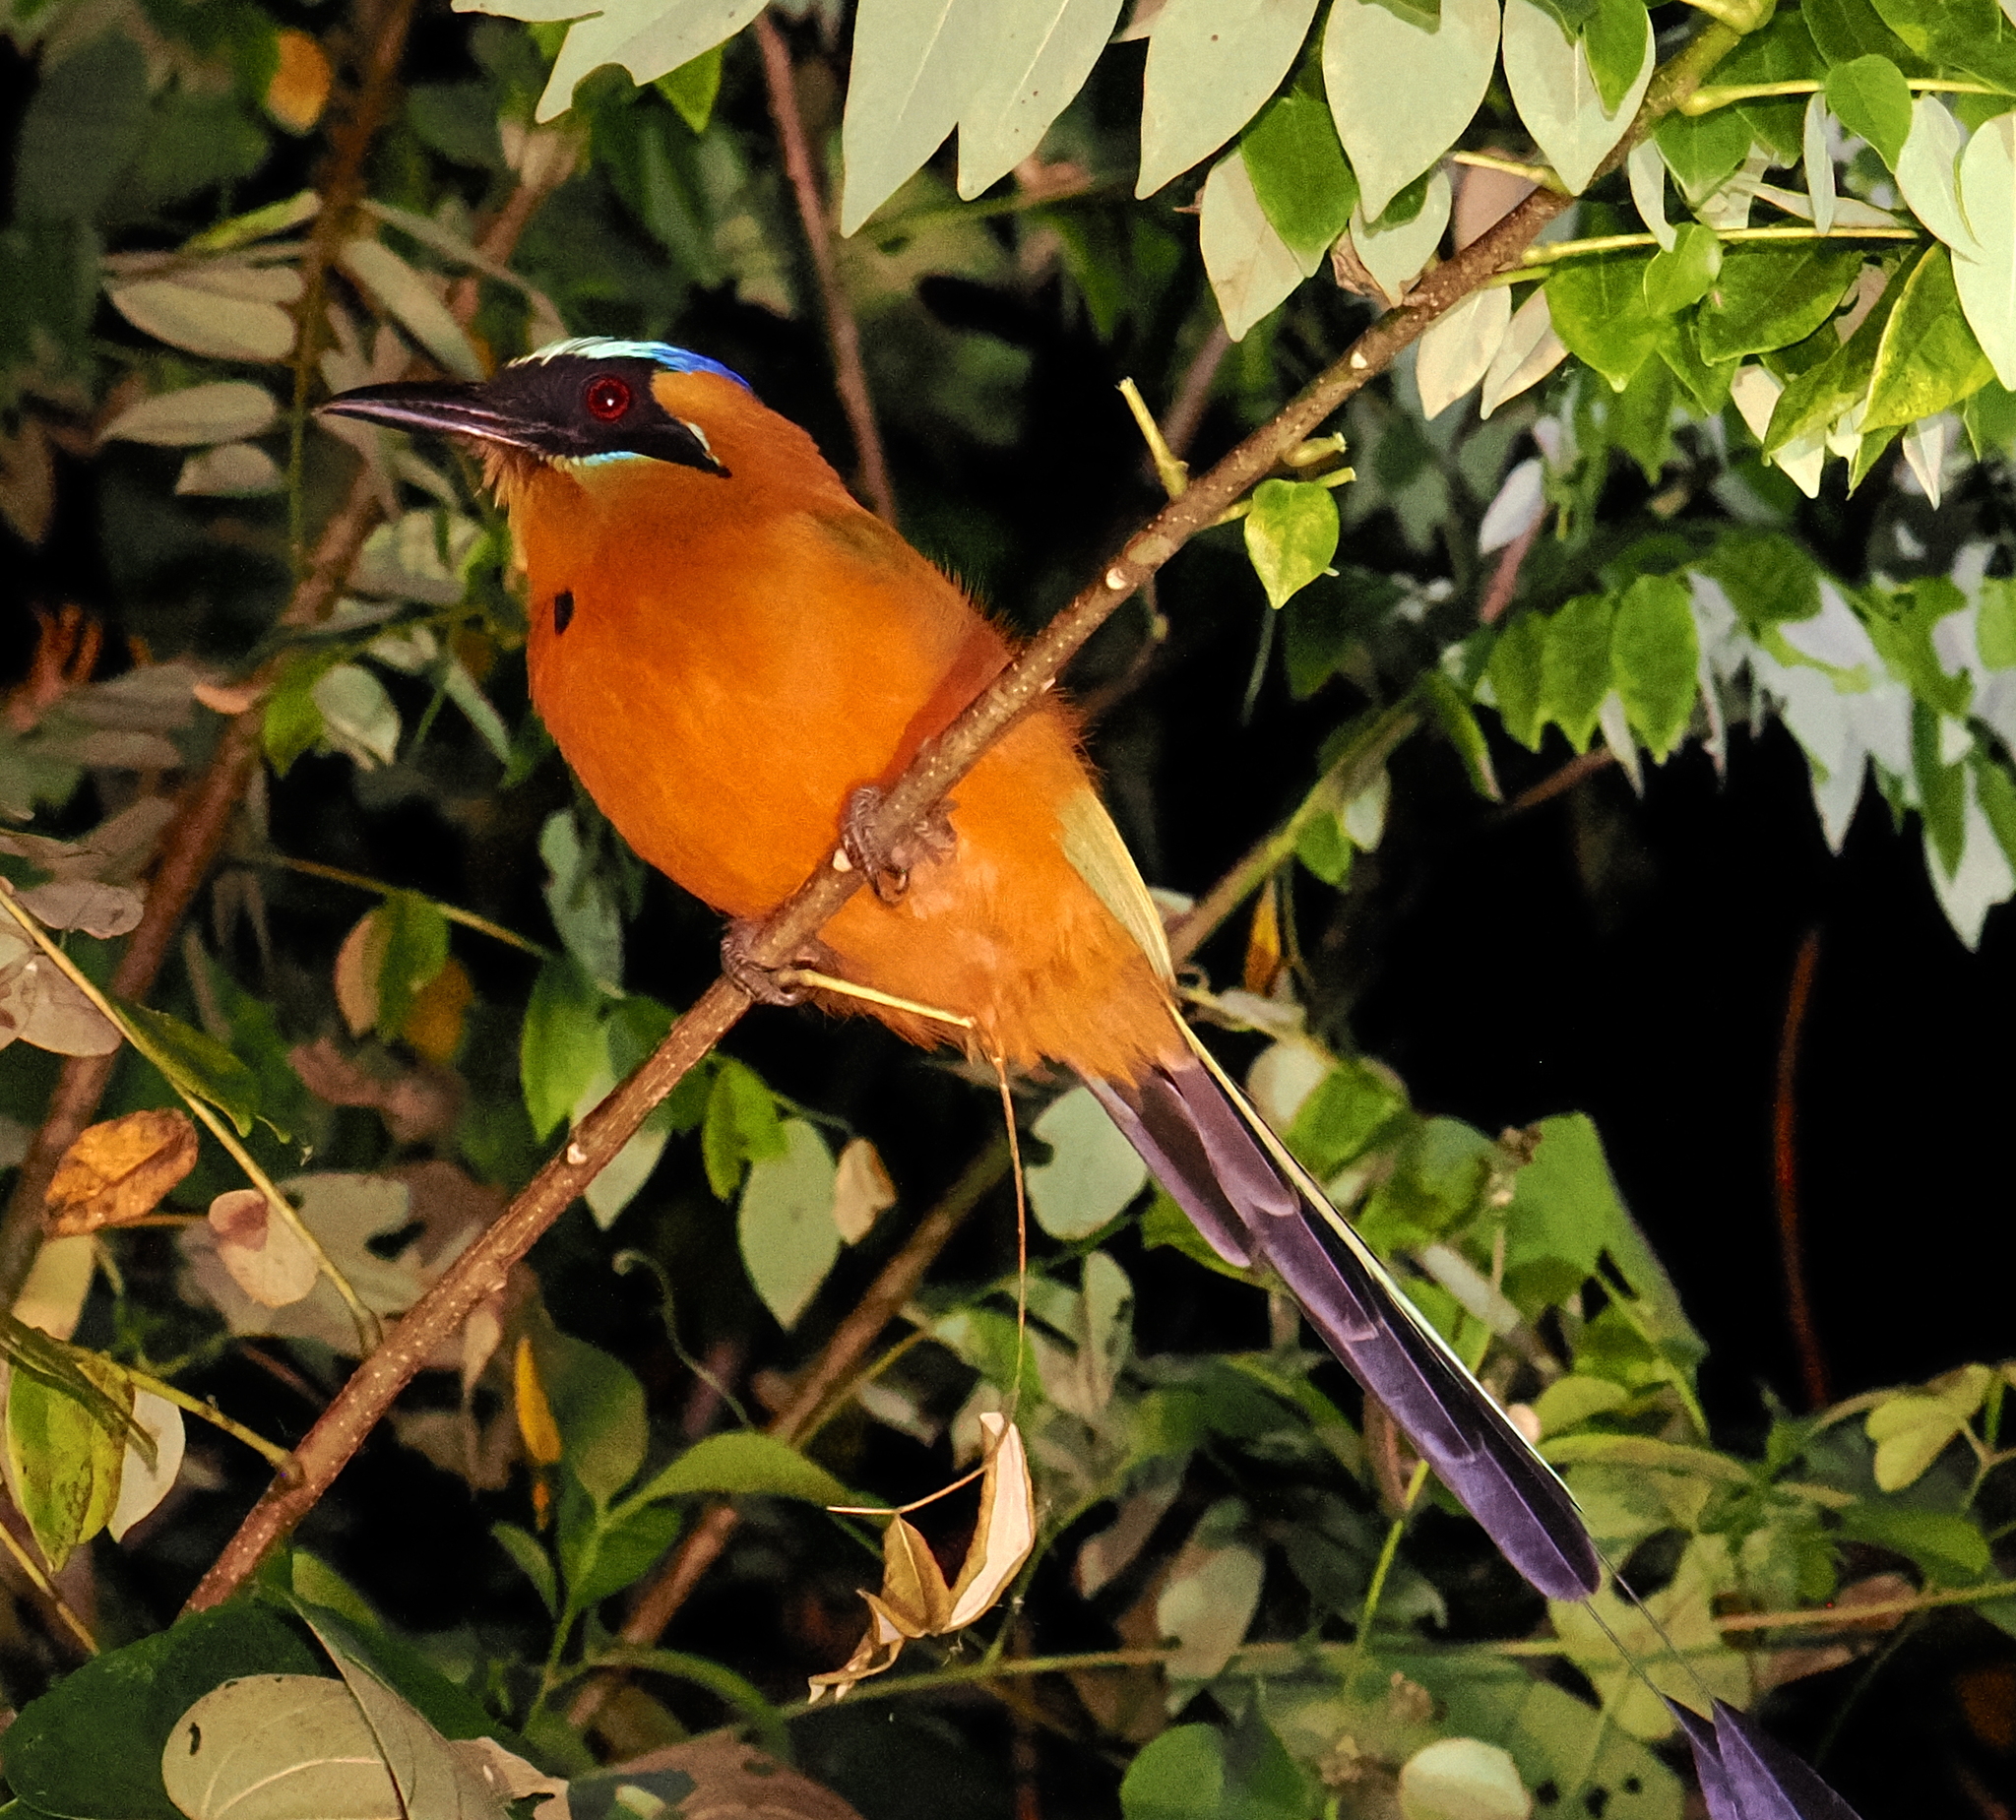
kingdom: Animalia
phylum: Chordata
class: Aves
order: Coraciiformes
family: Momotidae
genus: Momotus
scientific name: Momotus subrufescens
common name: Whooping motmot
